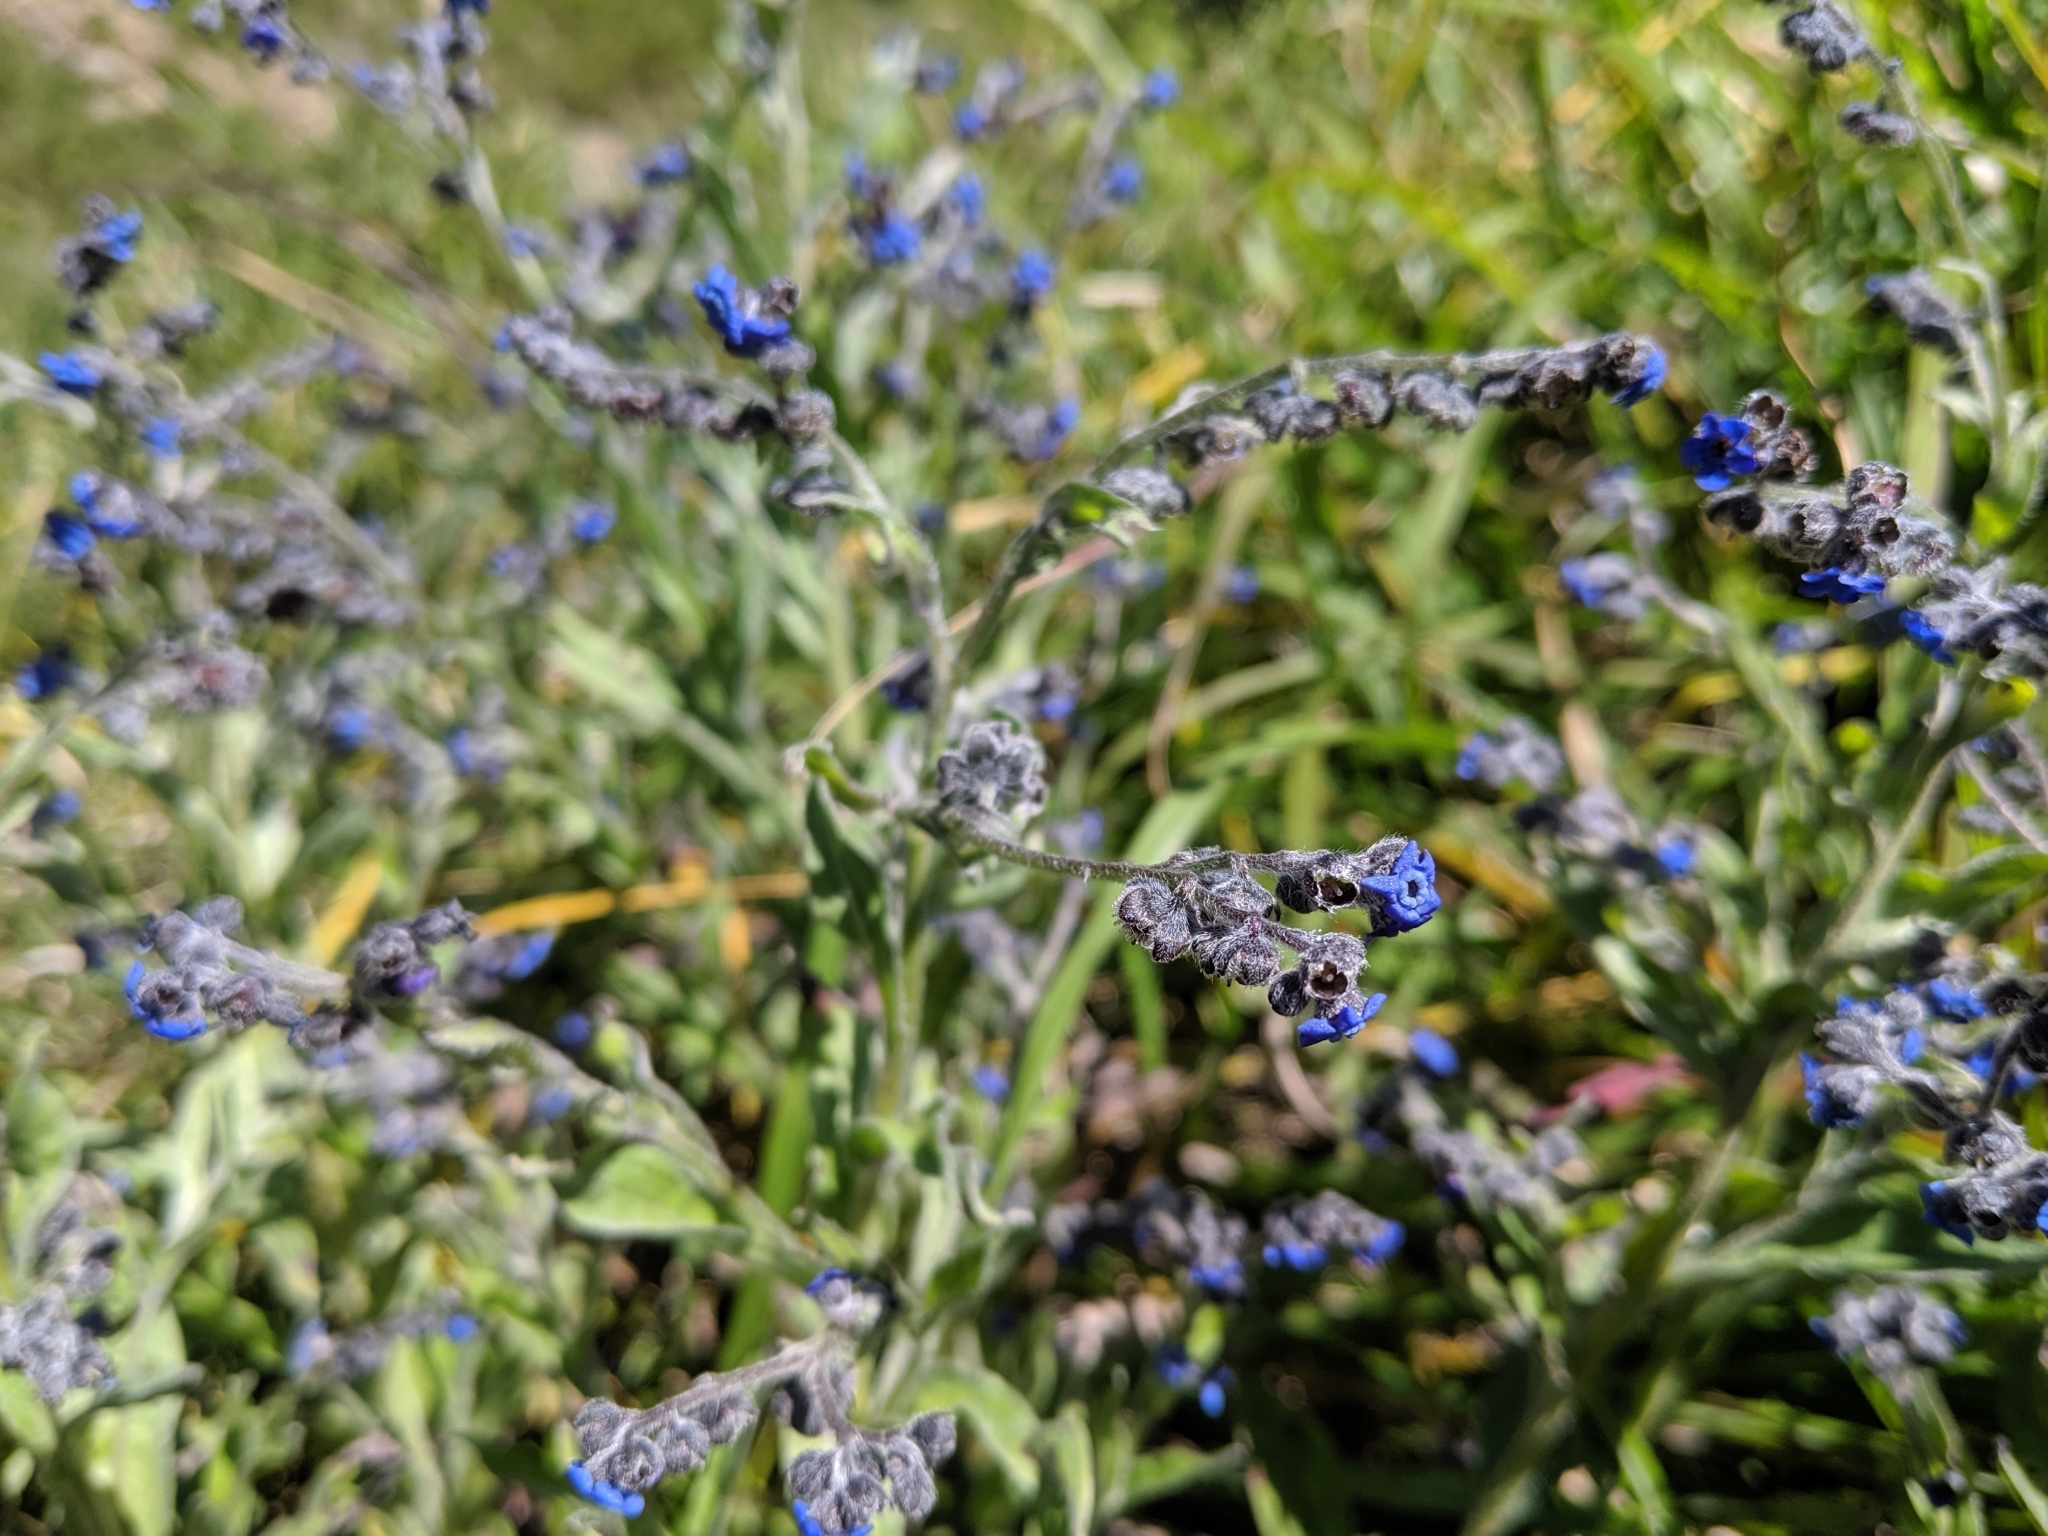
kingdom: Plantae
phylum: Tracheophyta
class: Magnoliopsida
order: Boraginales
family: Boraginaceae
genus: Cynoglossum
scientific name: Cynoglossum alpestre
